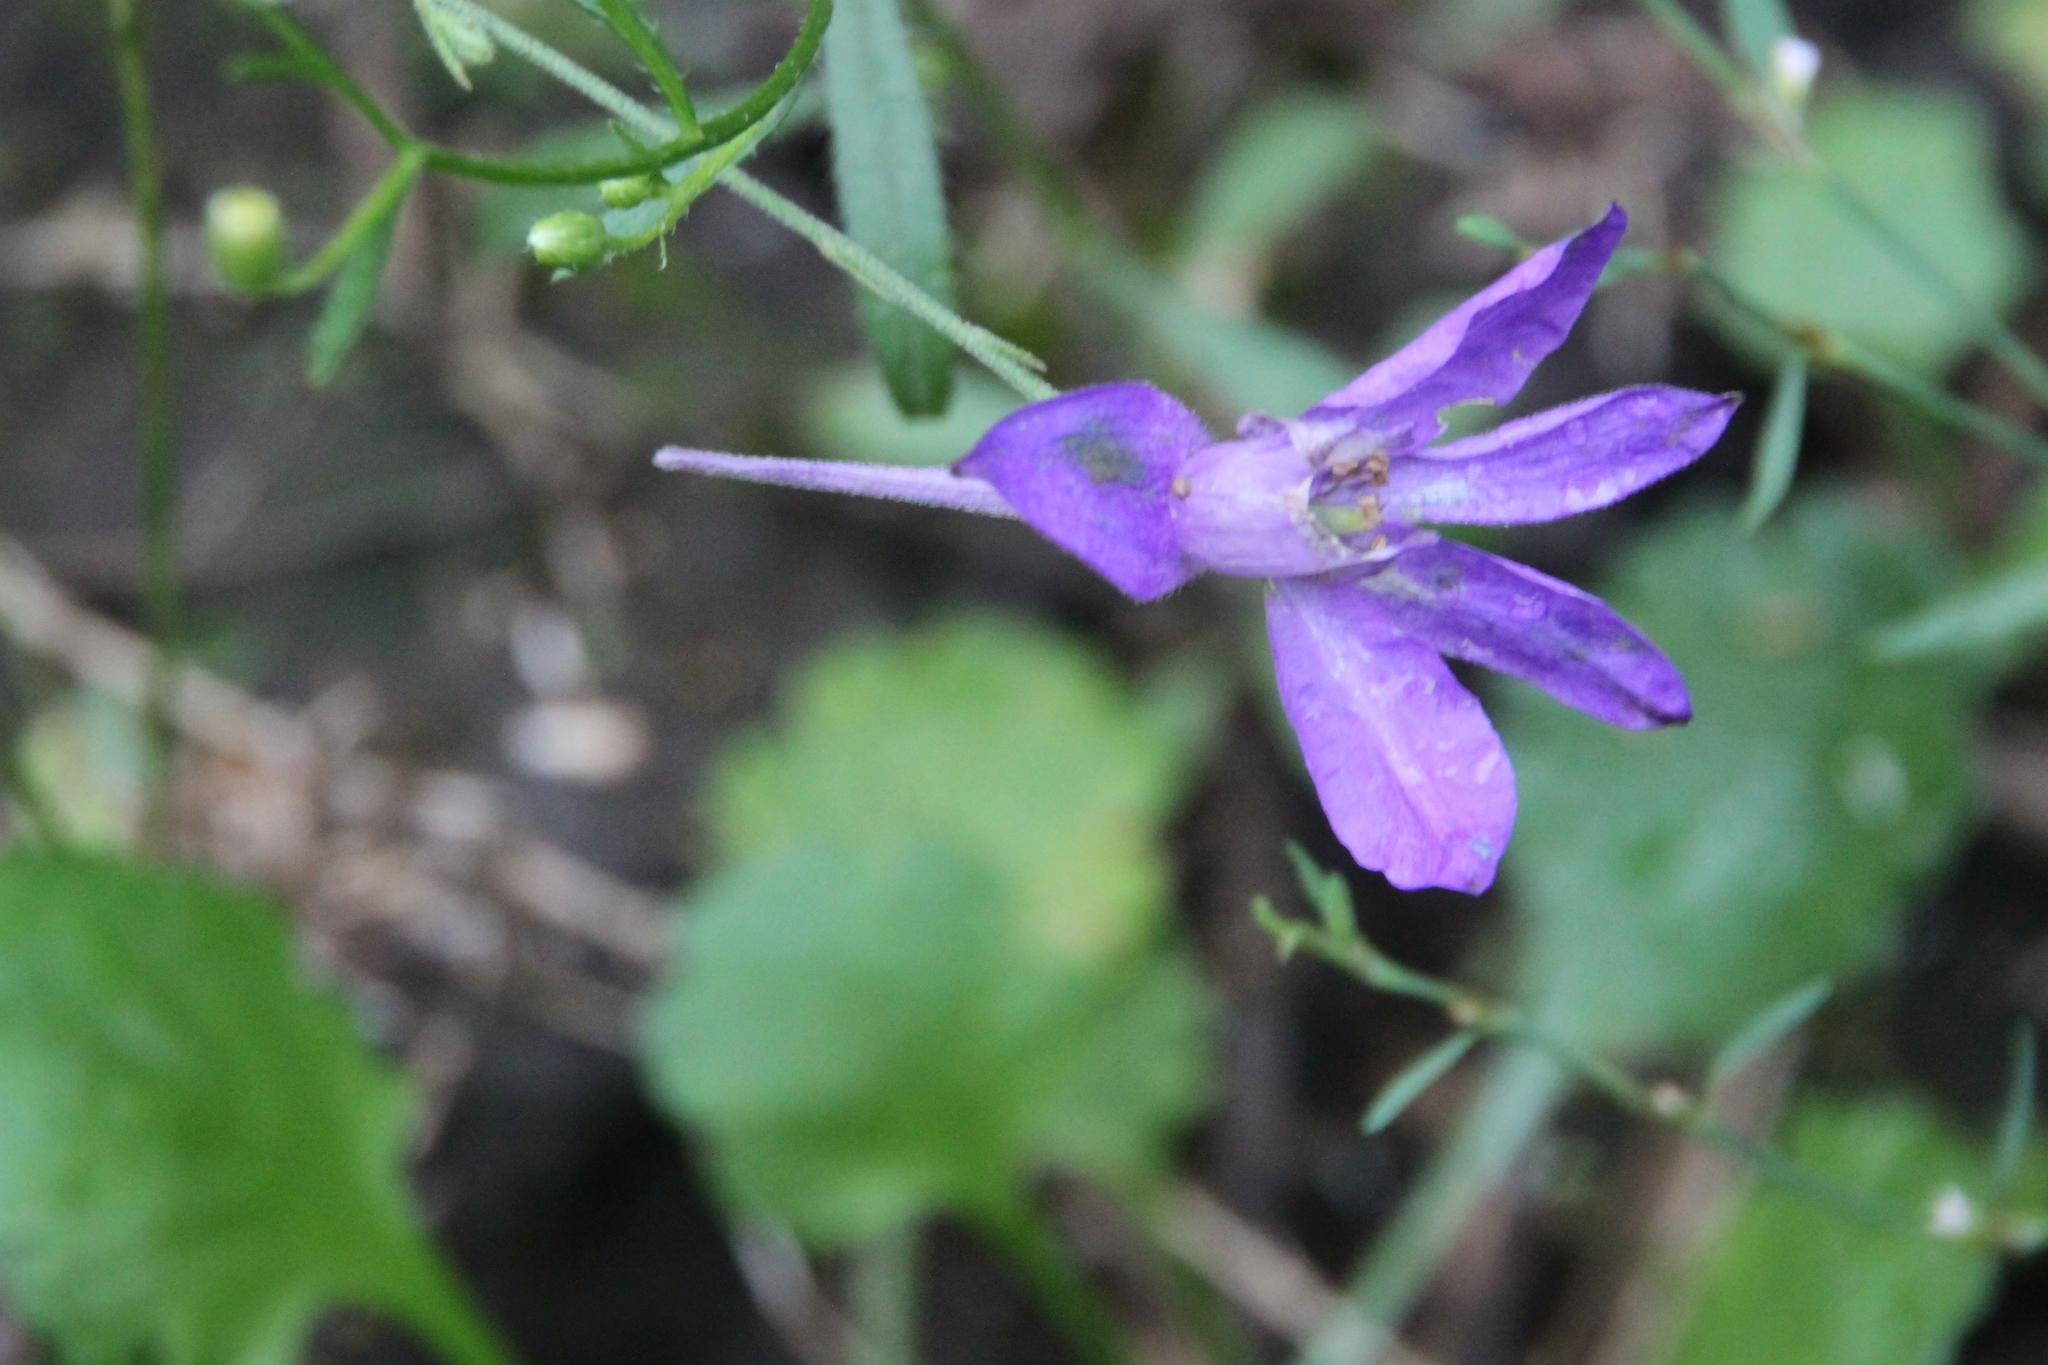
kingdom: Plantae
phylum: Tracheophyta
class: Magnoliopsida
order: Ranunculales
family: Ranunculaceae
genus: Delphinium
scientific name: Delphinium consolida
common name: Branching larkspur
